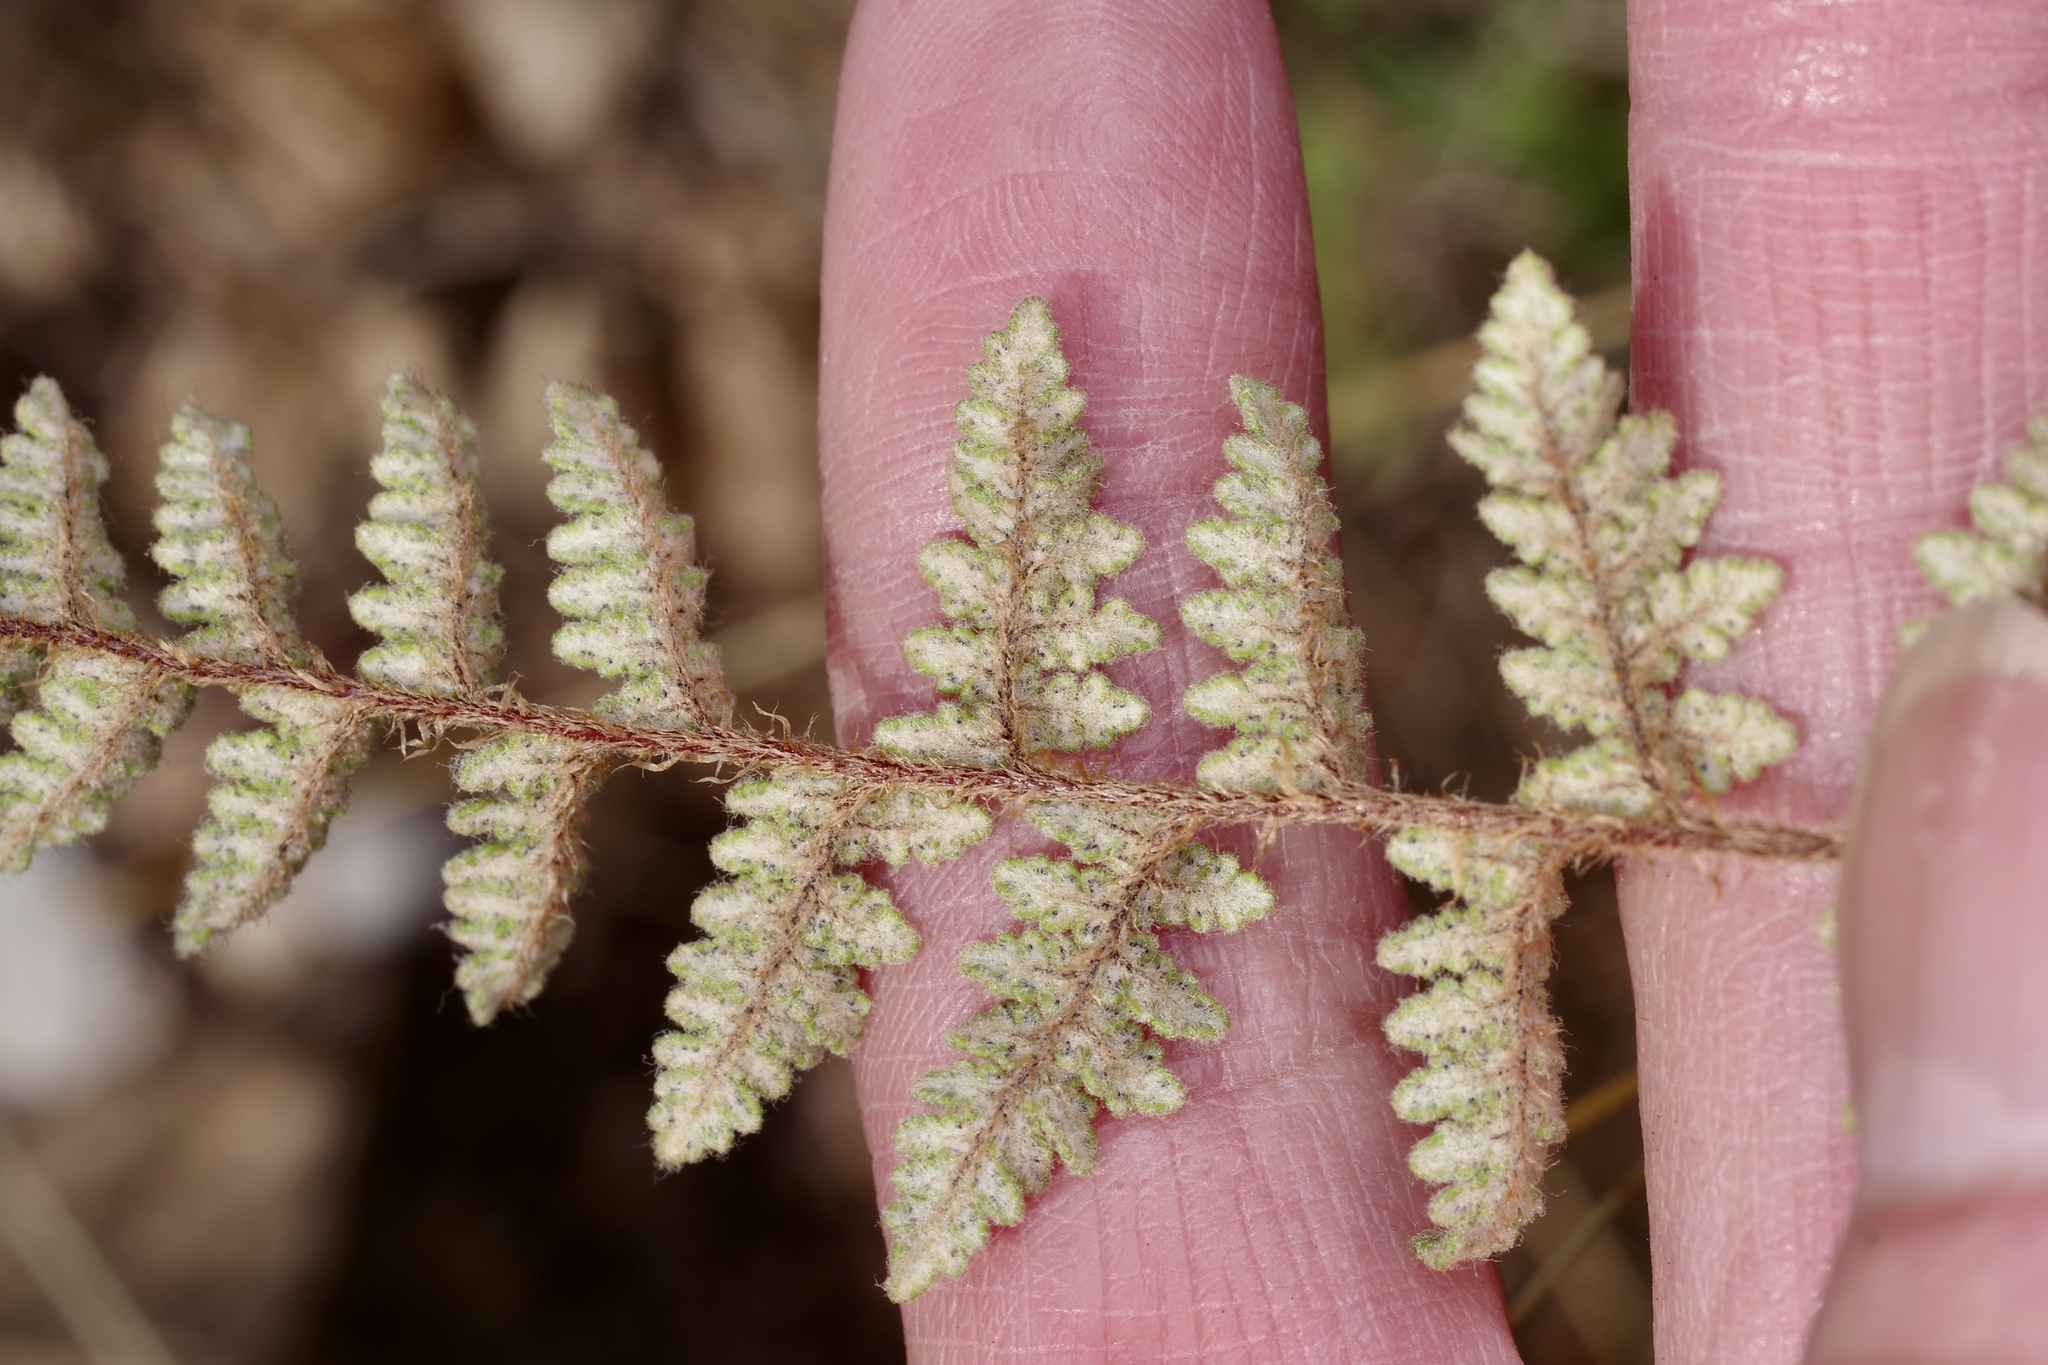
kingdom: Plantae
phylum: Tracheophyta
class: Polypodiopsida
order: Polypodiales
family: Pteridaceae
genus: Myriopteris
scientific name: Myriopteris scabra
